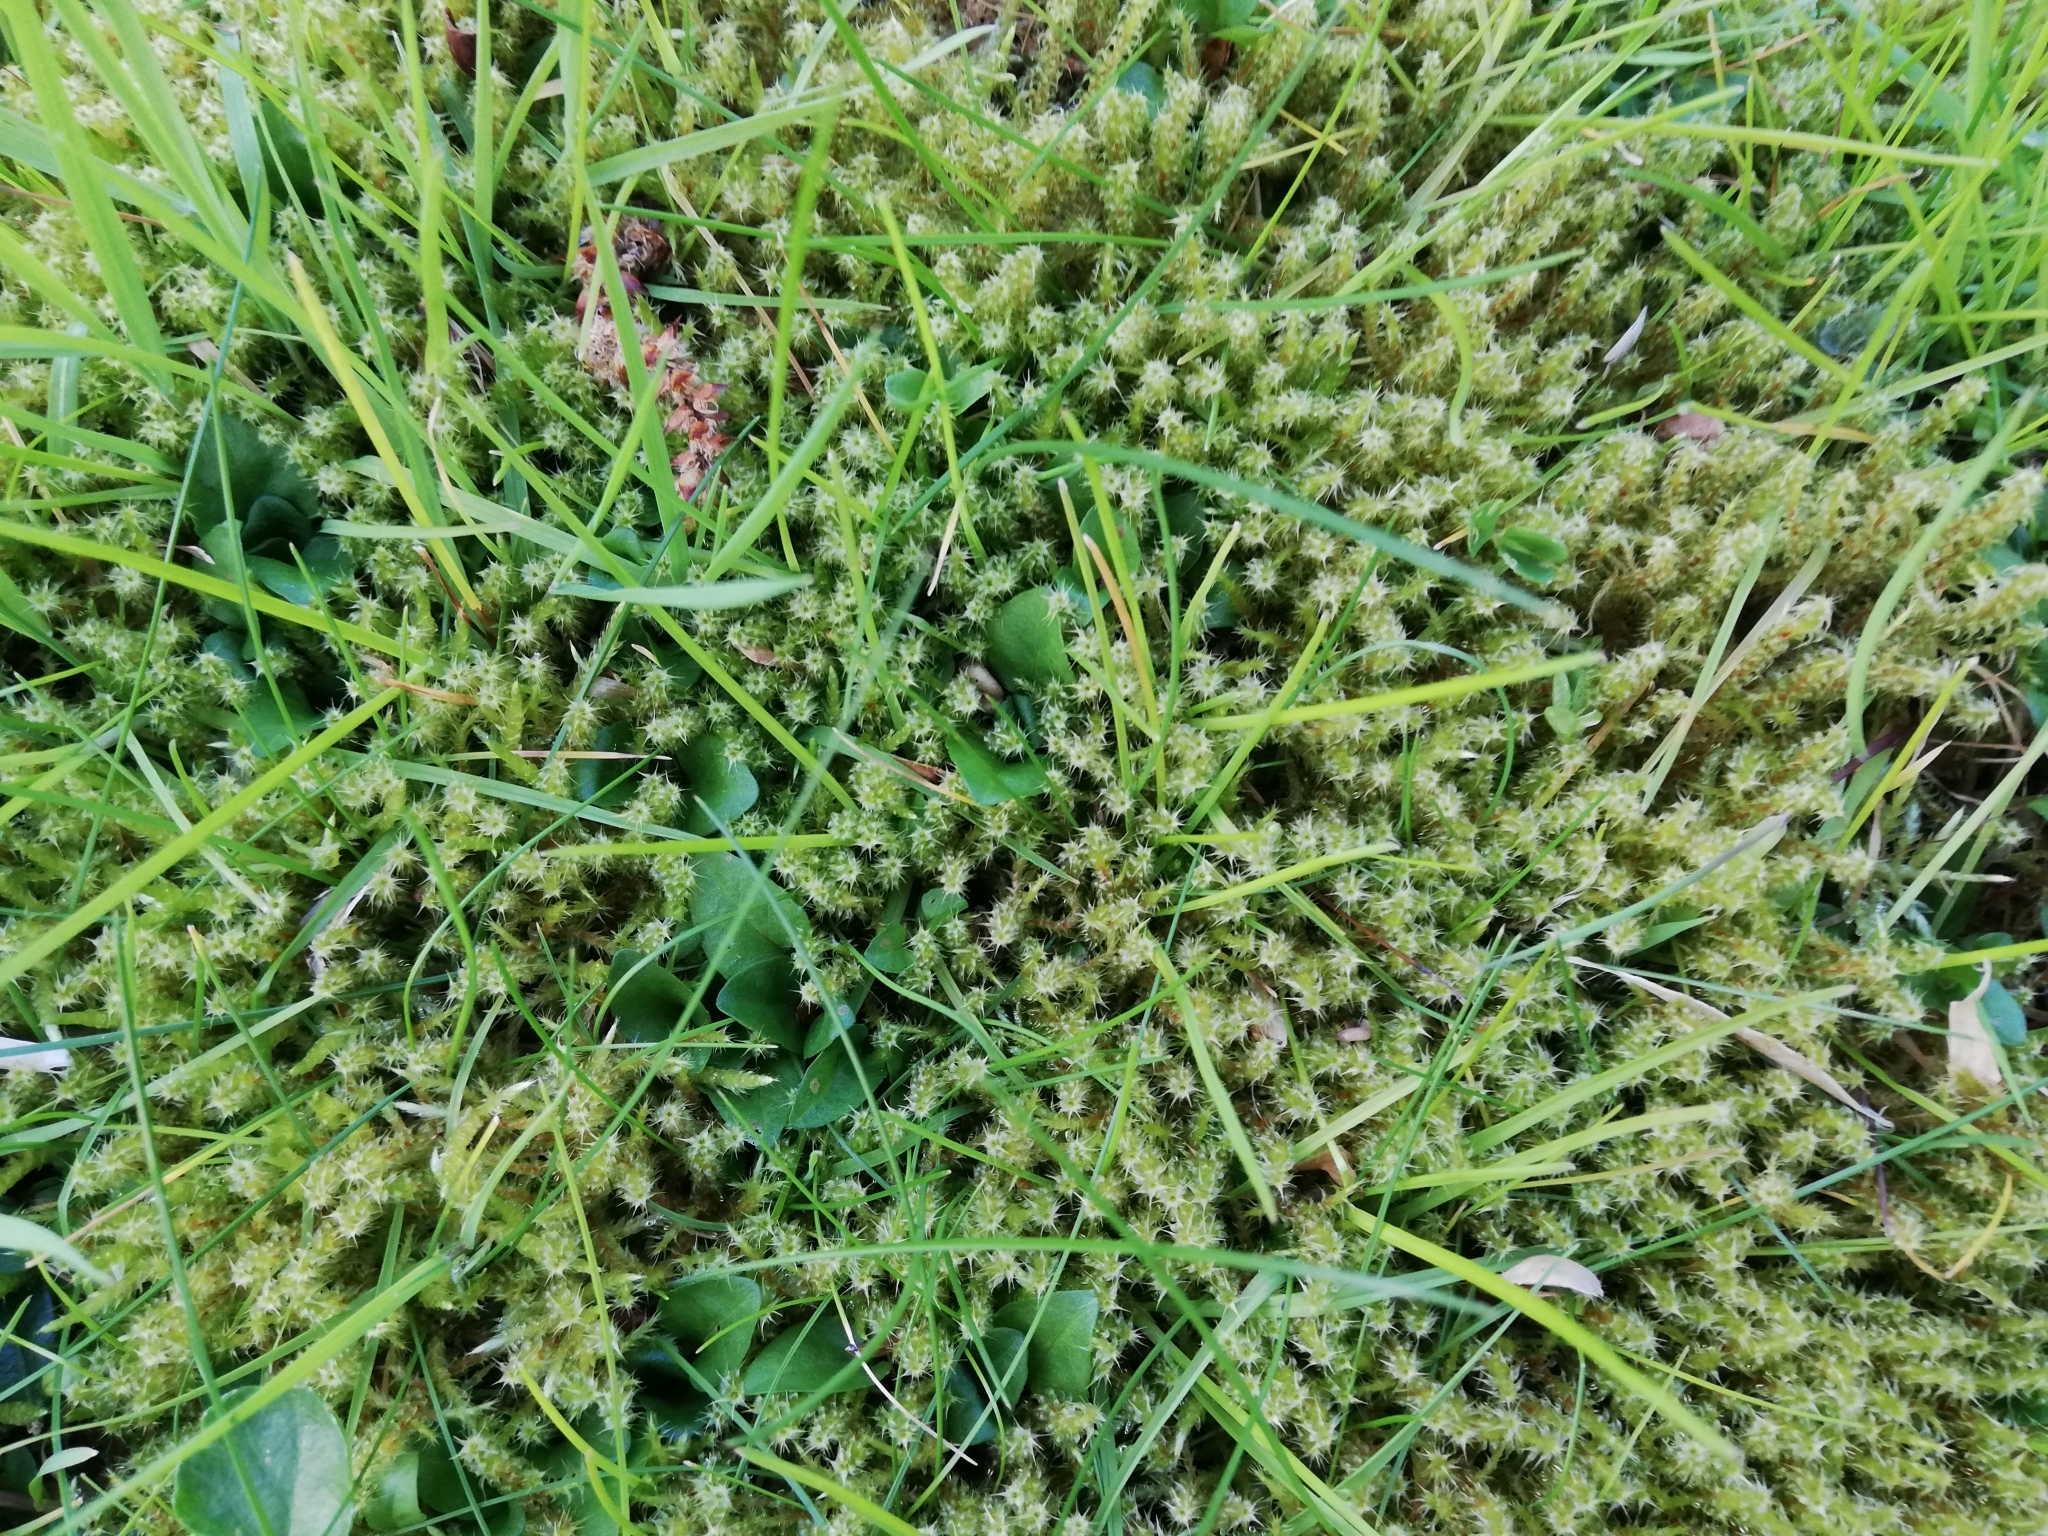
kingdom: Plantae
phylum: Bryophyta
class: Bryopsida
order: Hypnales
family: Hylocomiaceae
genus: Rhytidiadelphus
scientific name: Rhytidiadelphus squarrosus
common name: Springy turf-moss
